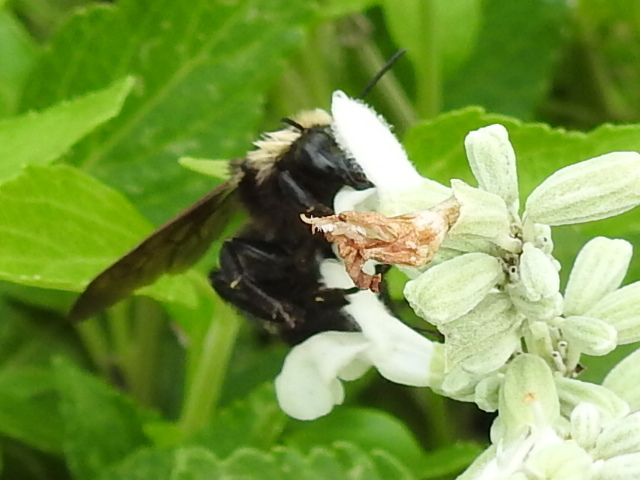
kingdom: Animalia
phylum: Arthropoda
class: Insecta
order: Hymenoptera
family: Apidae
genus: Bombus
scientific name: Bombus pensylvanicus
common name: Bumble bee
